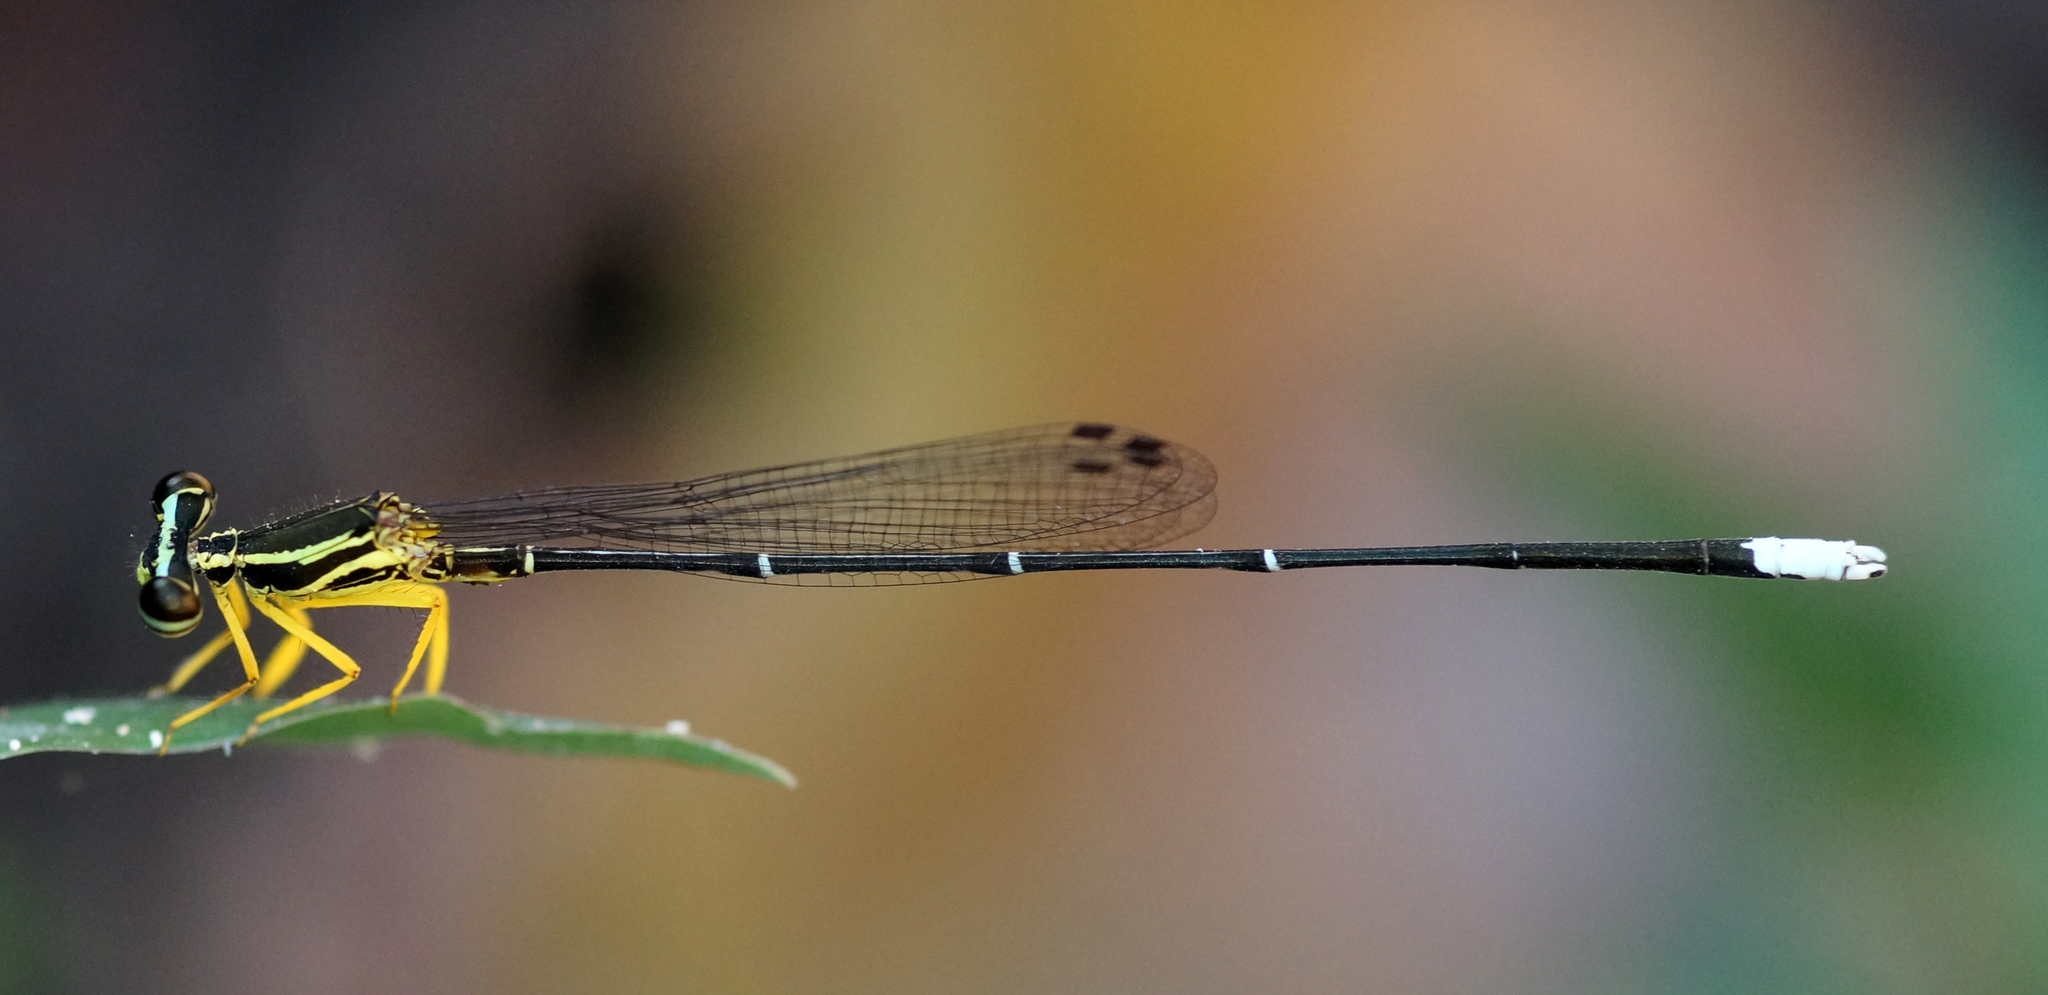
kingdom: Animalia
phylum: Arthropoda
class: Insecta
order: Odonata
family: Platycnemididae
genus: Copera
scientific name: Copera marginipes
